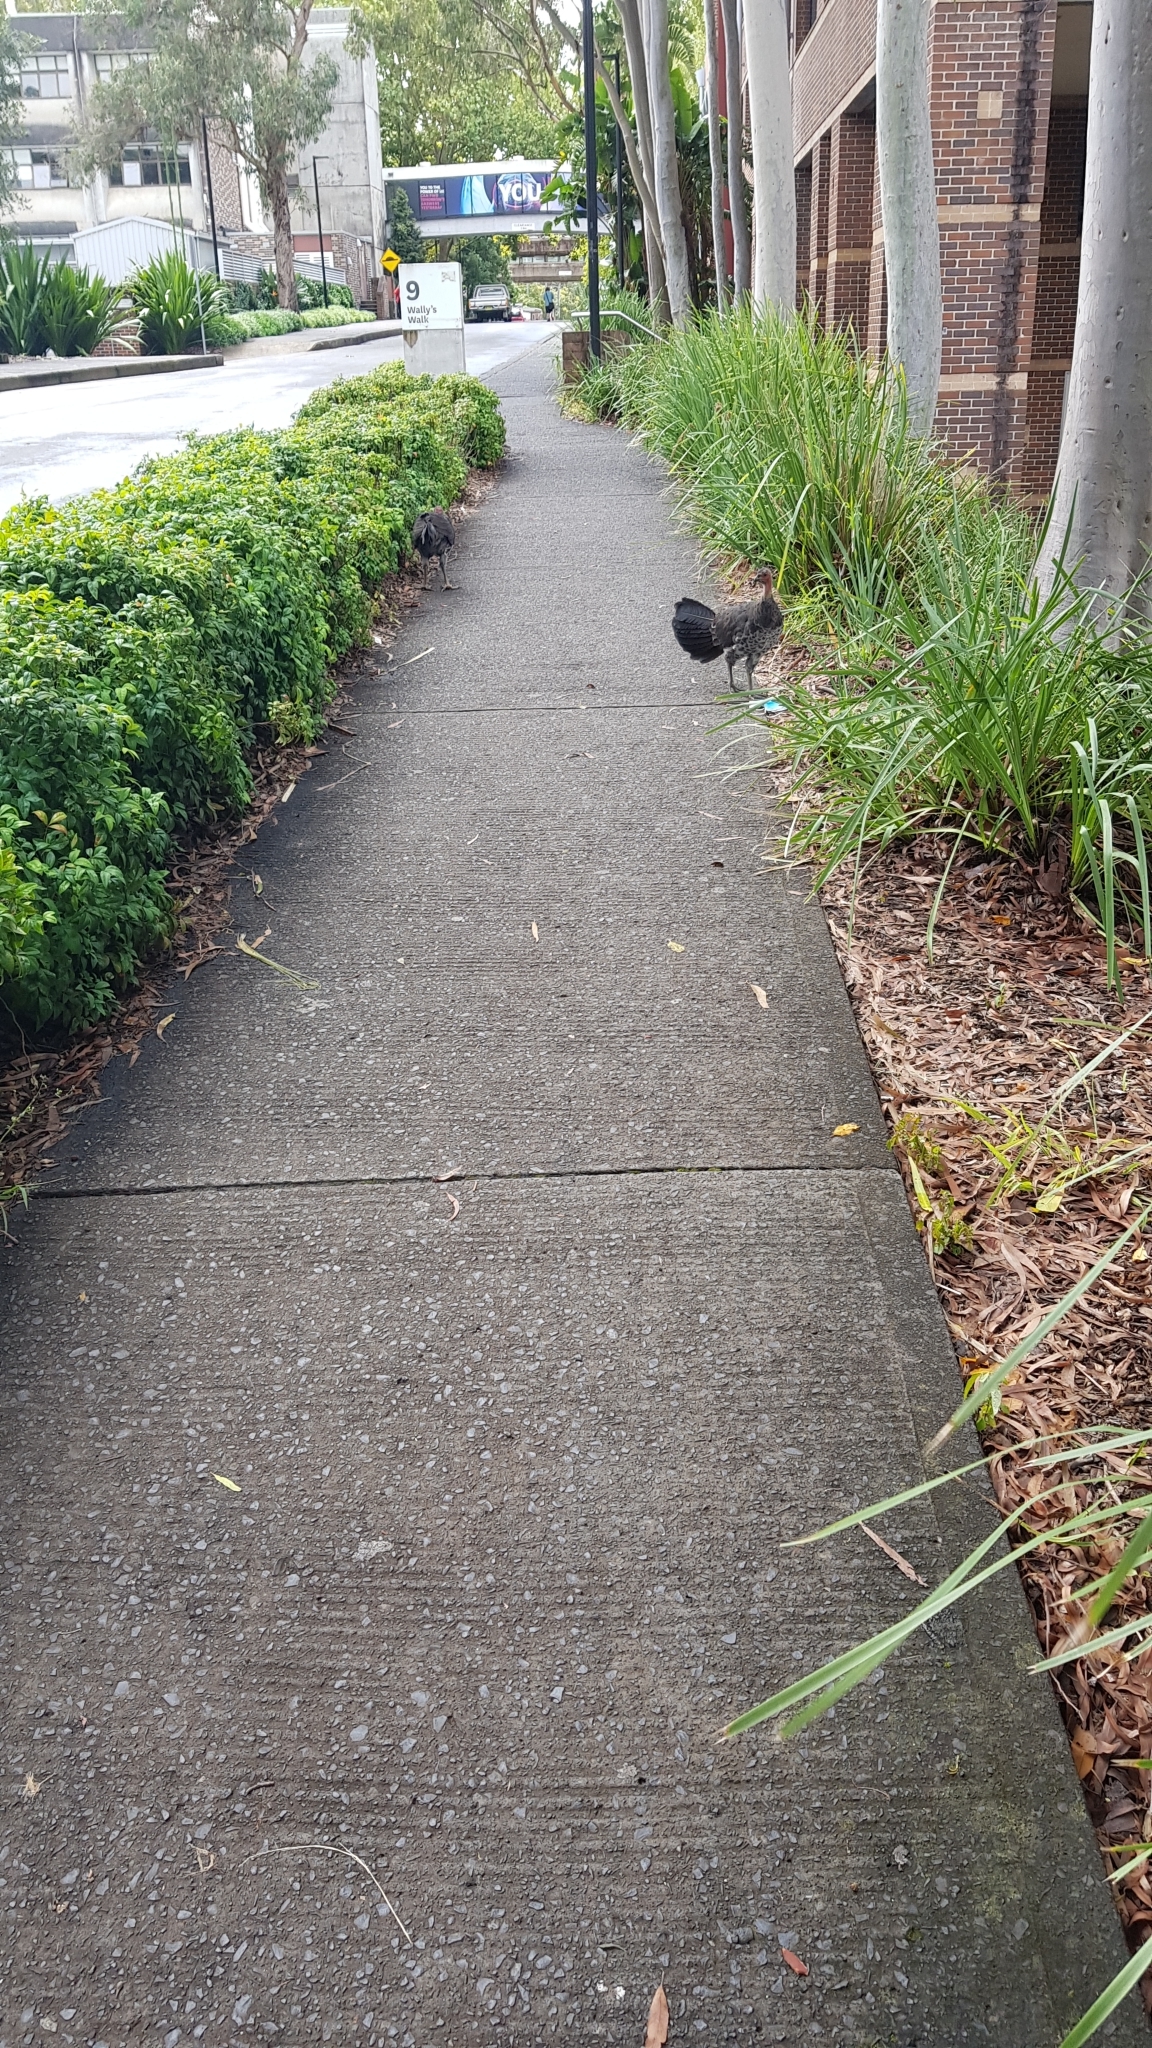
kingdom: Animalia
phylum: Chordata
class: Aves
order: Galliformes
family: Megapodiidae
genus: Alectura
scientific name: Alectura lathami
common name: Australian brushturkey
